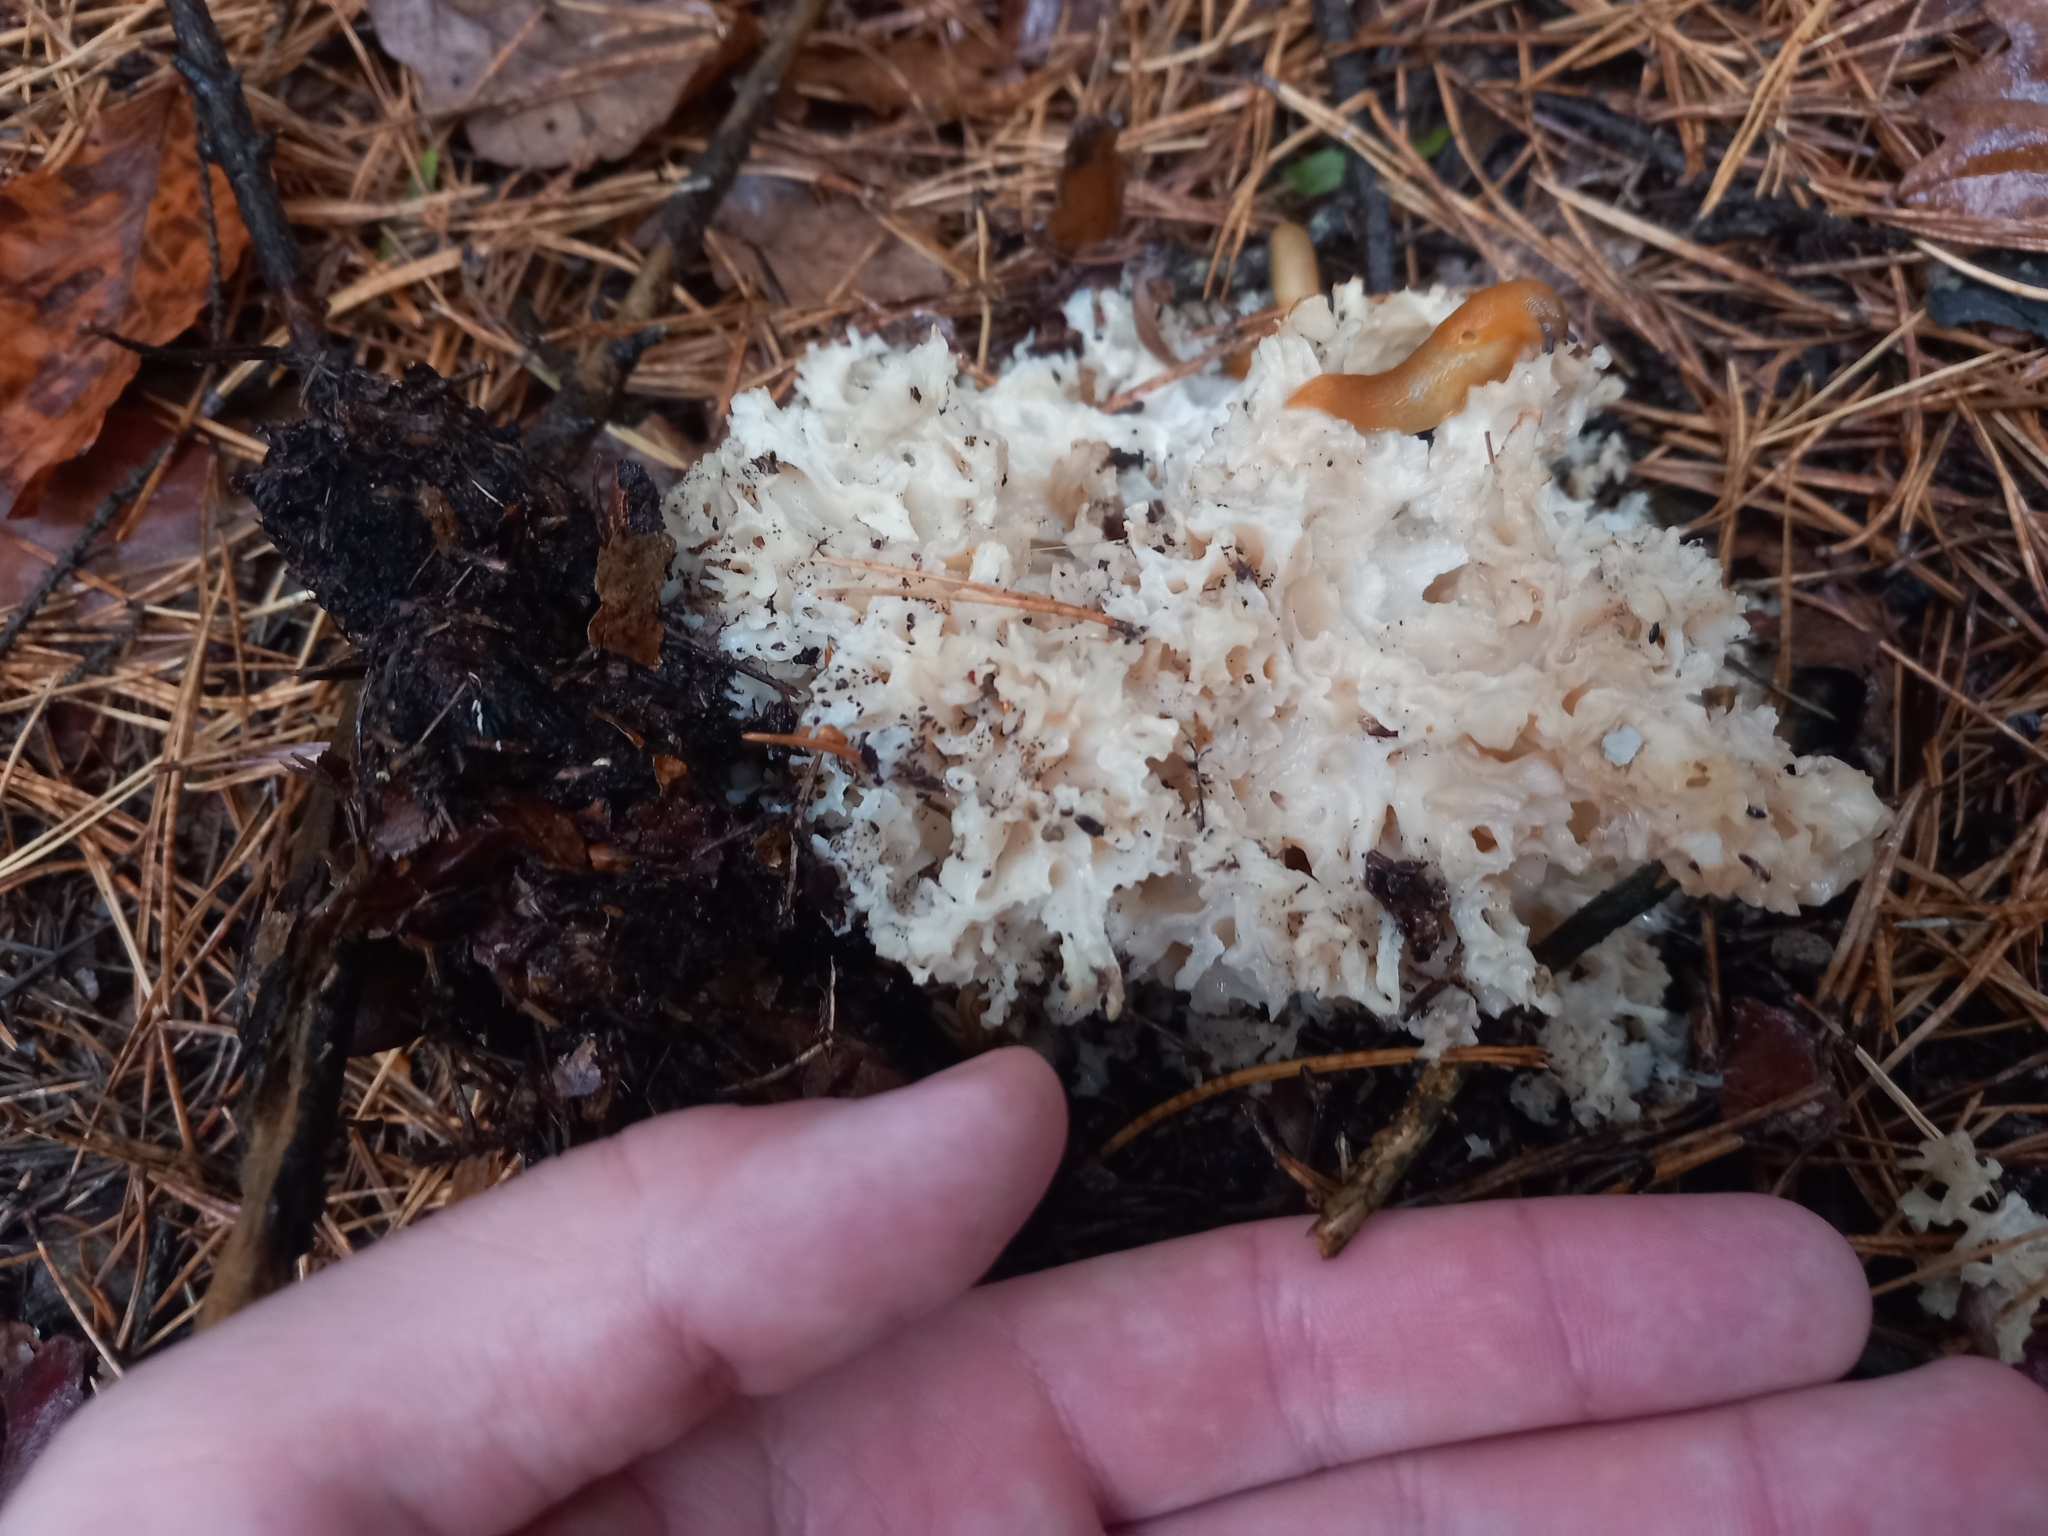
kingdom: Fungi
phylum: Basidiomycota
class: Agaricomycetes
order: Polyporales
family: Sparassidaceae
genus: Sparassis
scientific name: Sparassis crispa
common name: Brain fungus
